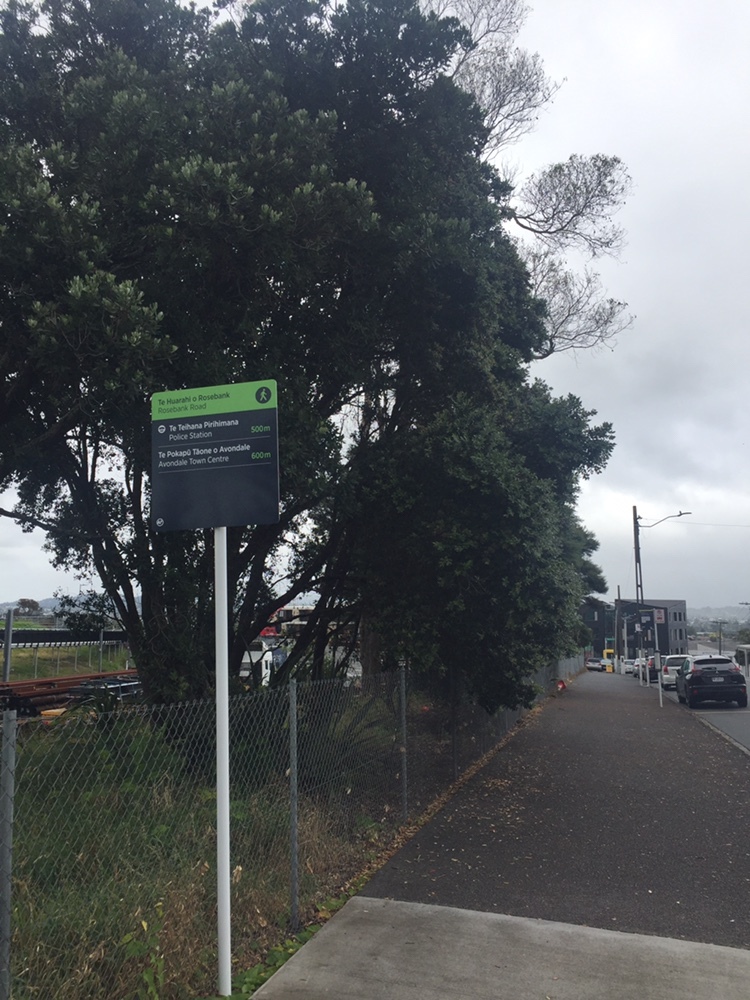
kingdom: Fungi
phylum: Basidiomycota
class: Pucciniomycetes
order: Pucciniales
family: Sphaerophragmiaceae
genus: Austropuccinia
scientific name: Austropuccinia psidii
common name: Myrtle rust
